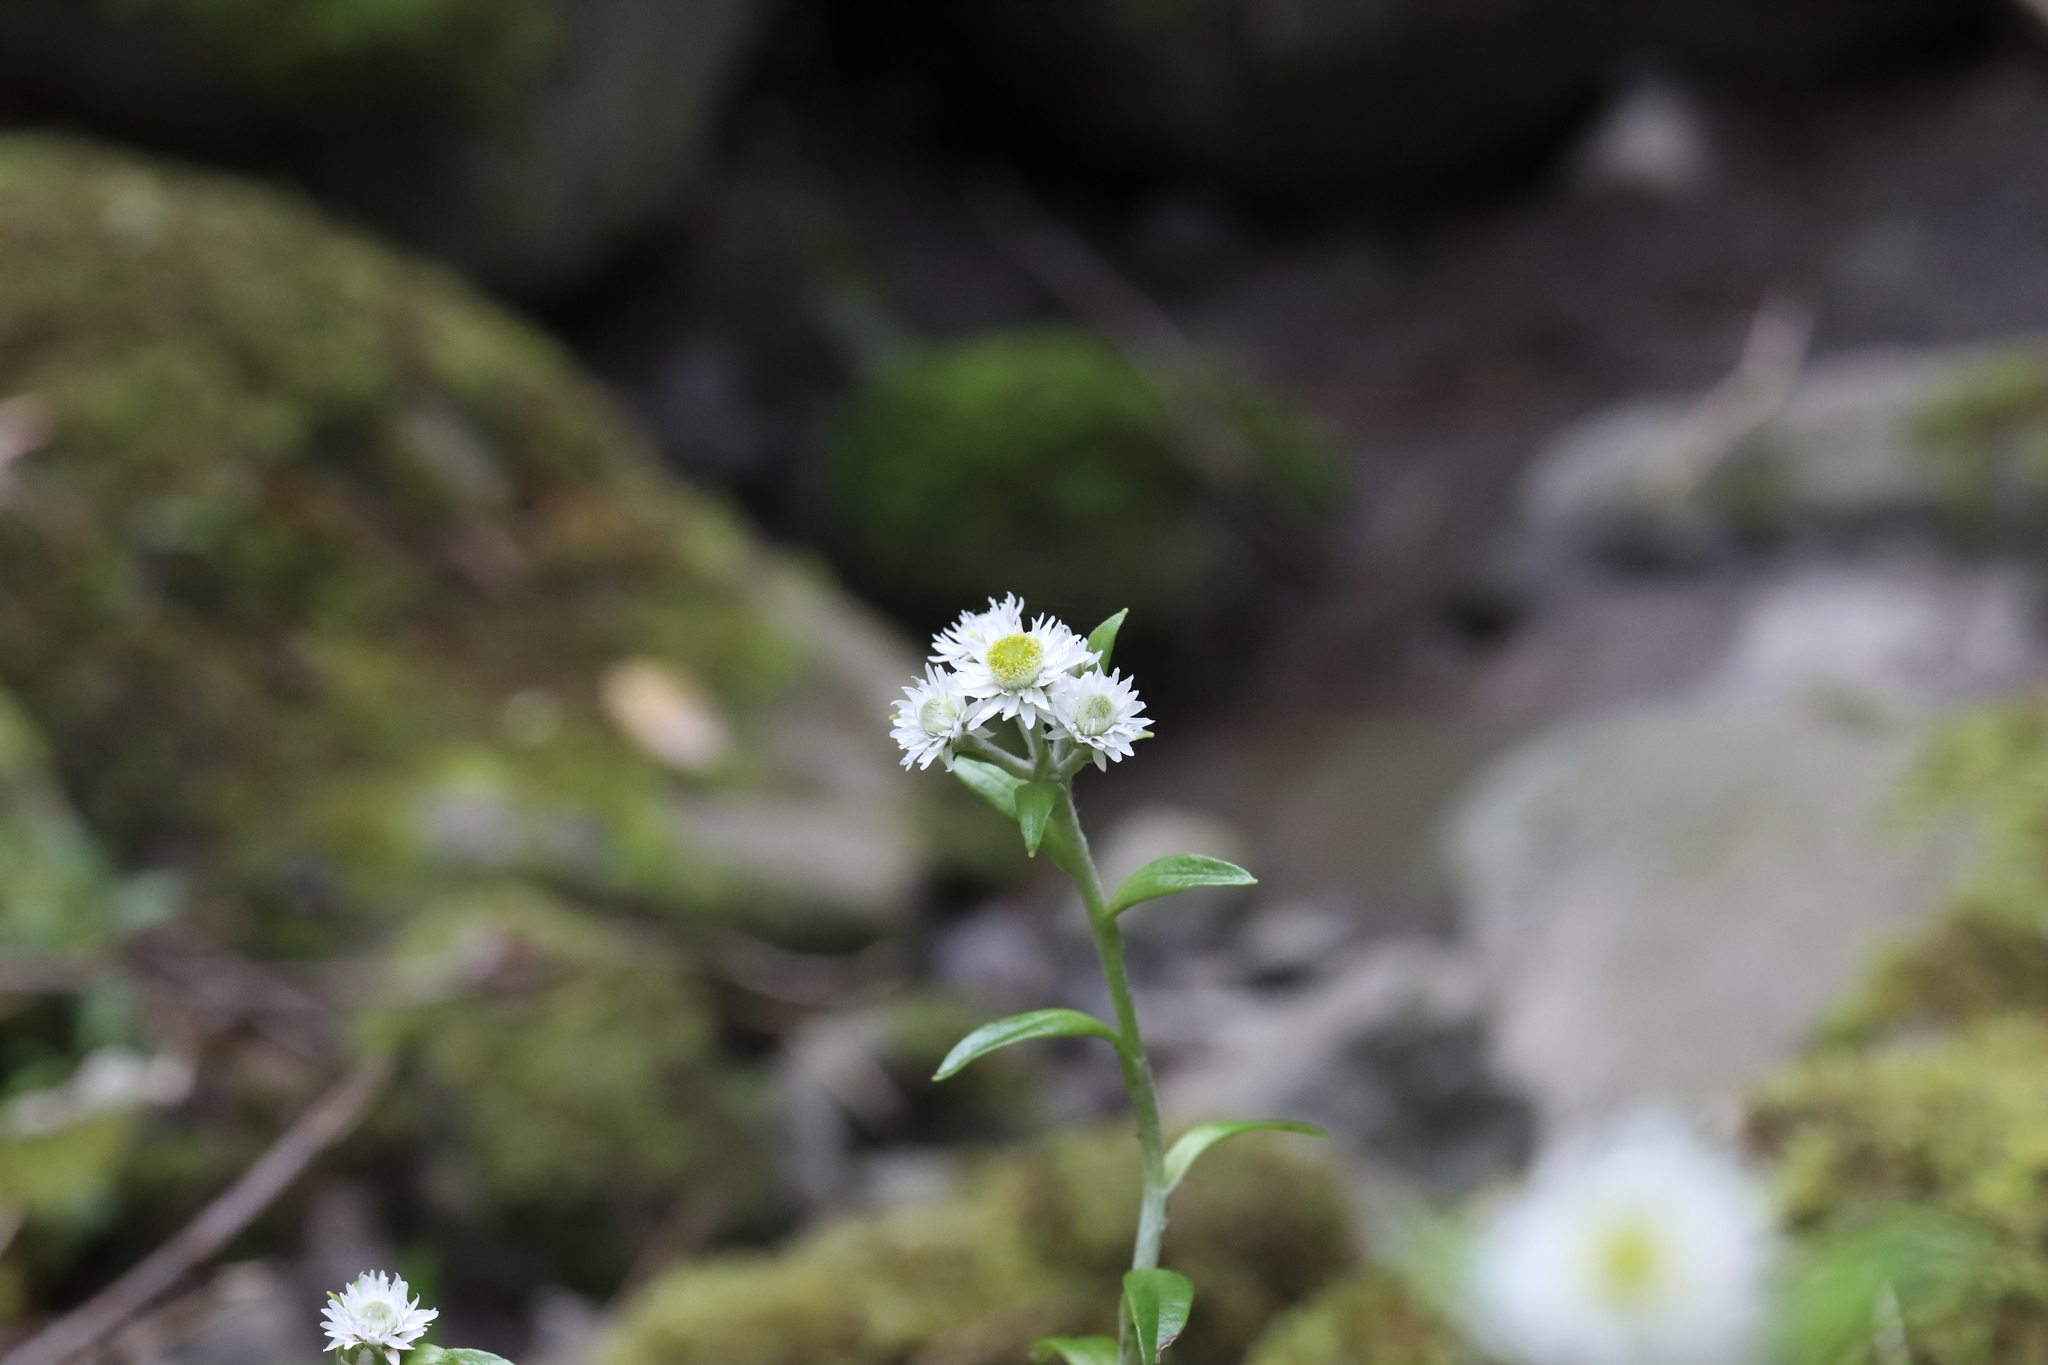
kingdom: Plantae
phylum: Tracheophyta
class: Magnoliopsida
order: Asterales
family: Asteraceae
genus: Anaphalioides
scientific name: Anaphalioides trinervis
